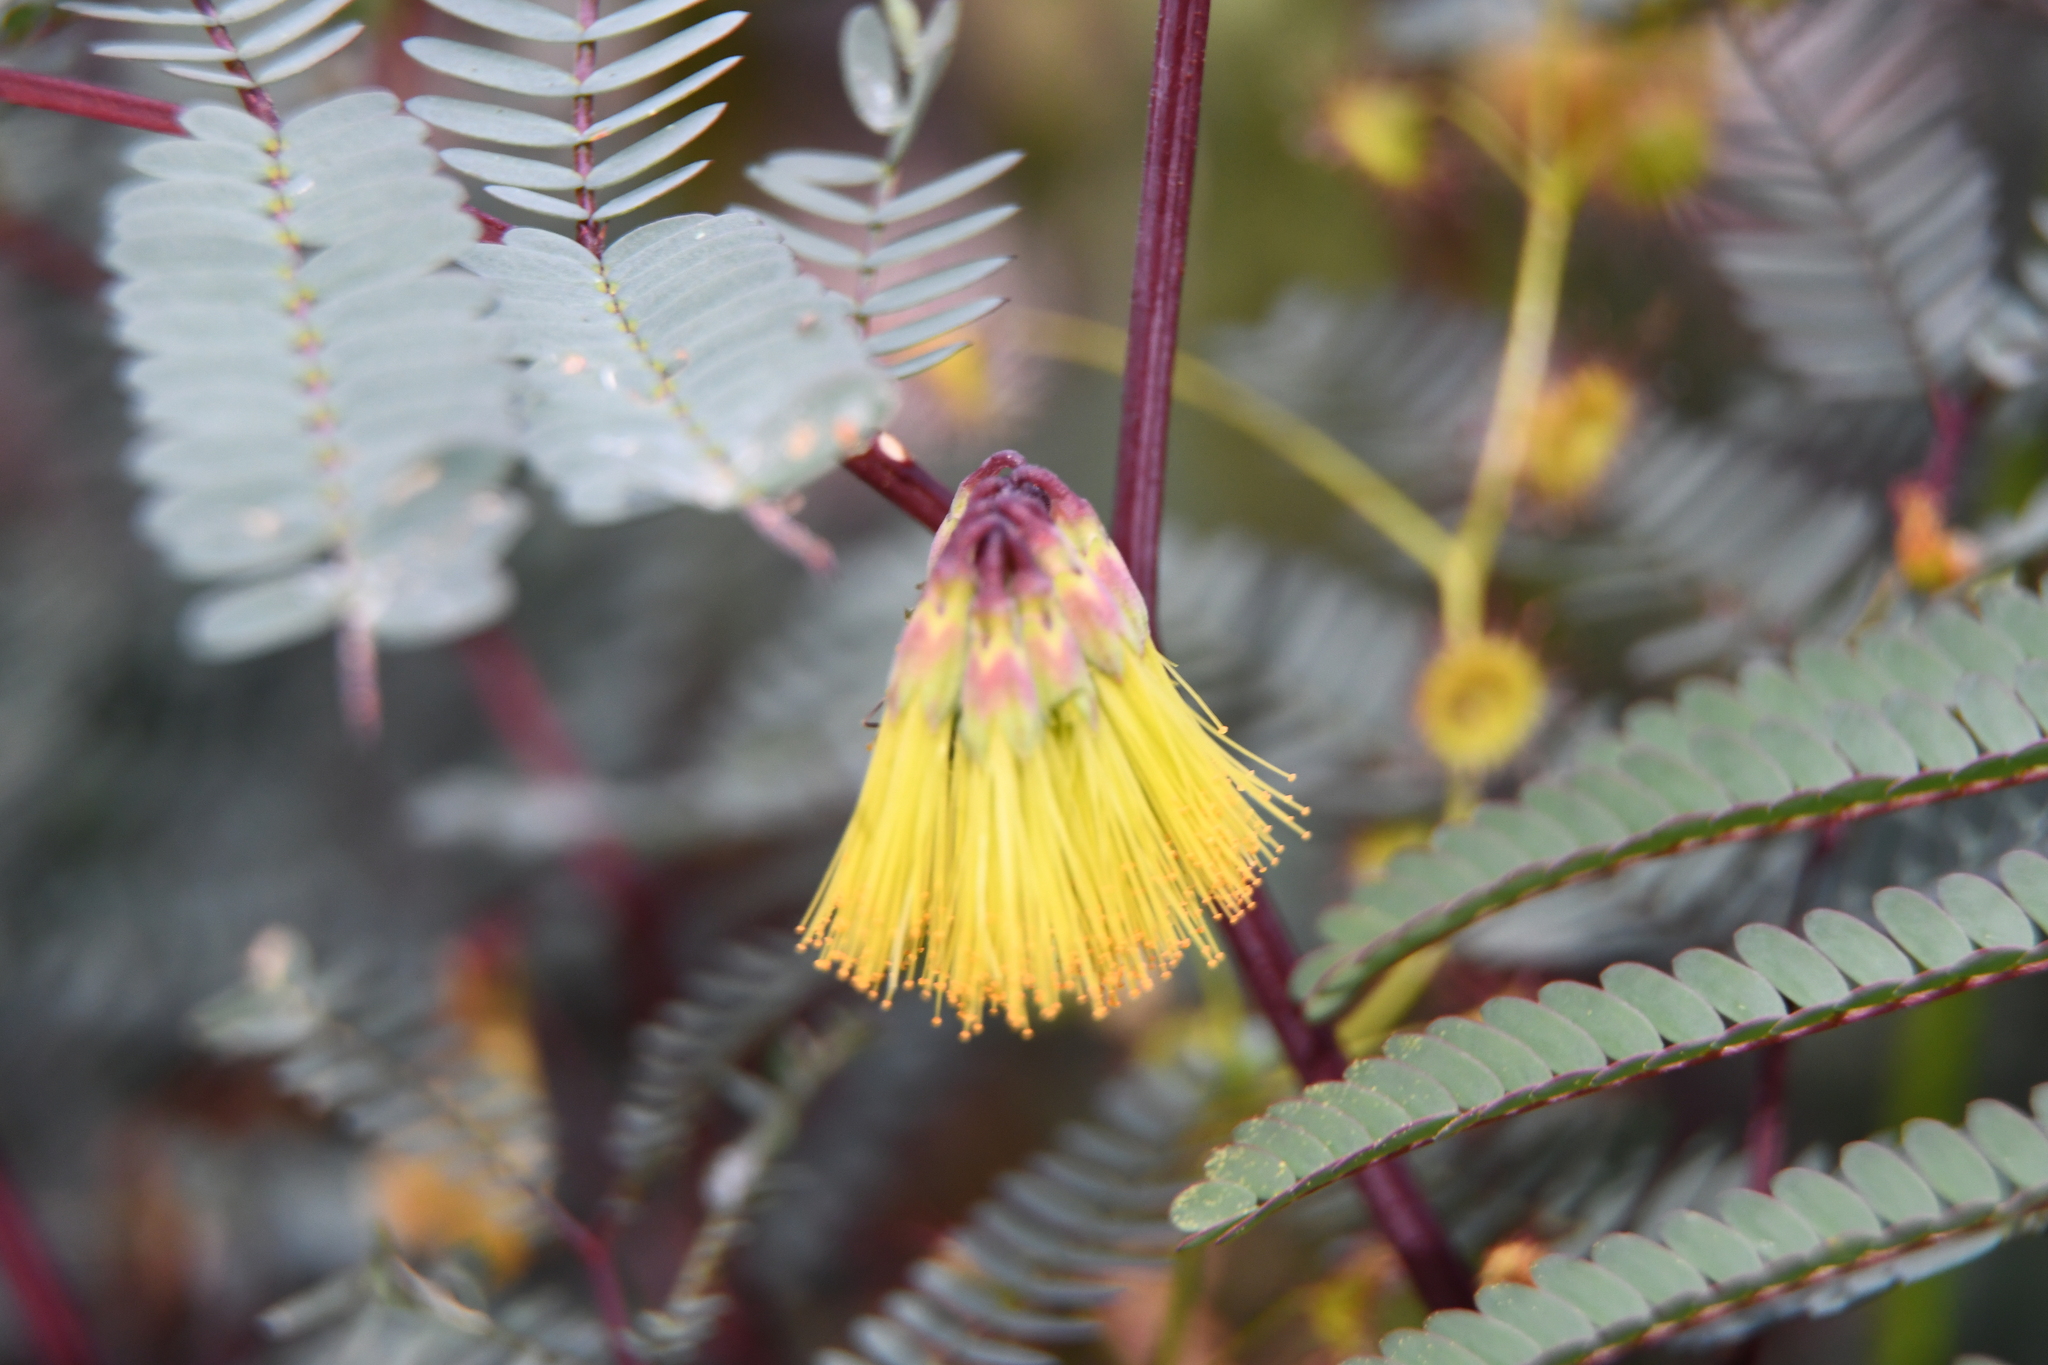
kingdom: Plantae
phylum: Tracheophyta
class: Magnoliopsida
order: Fabales
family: Fabaceae
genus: Paraserianthes
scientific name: Paraserianthes lophantha
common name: Plume albizia
